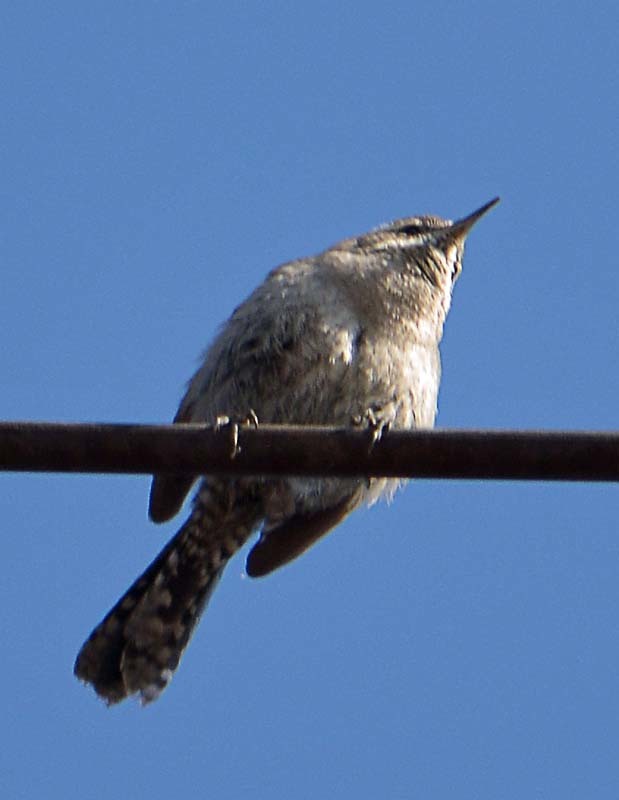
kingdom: Animalia
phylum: Chordata
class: Aves
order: Passeriformes
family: Troglodytidae
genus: Thryomanes
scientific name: Thryomanes bewickii
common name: Bewick's wren
